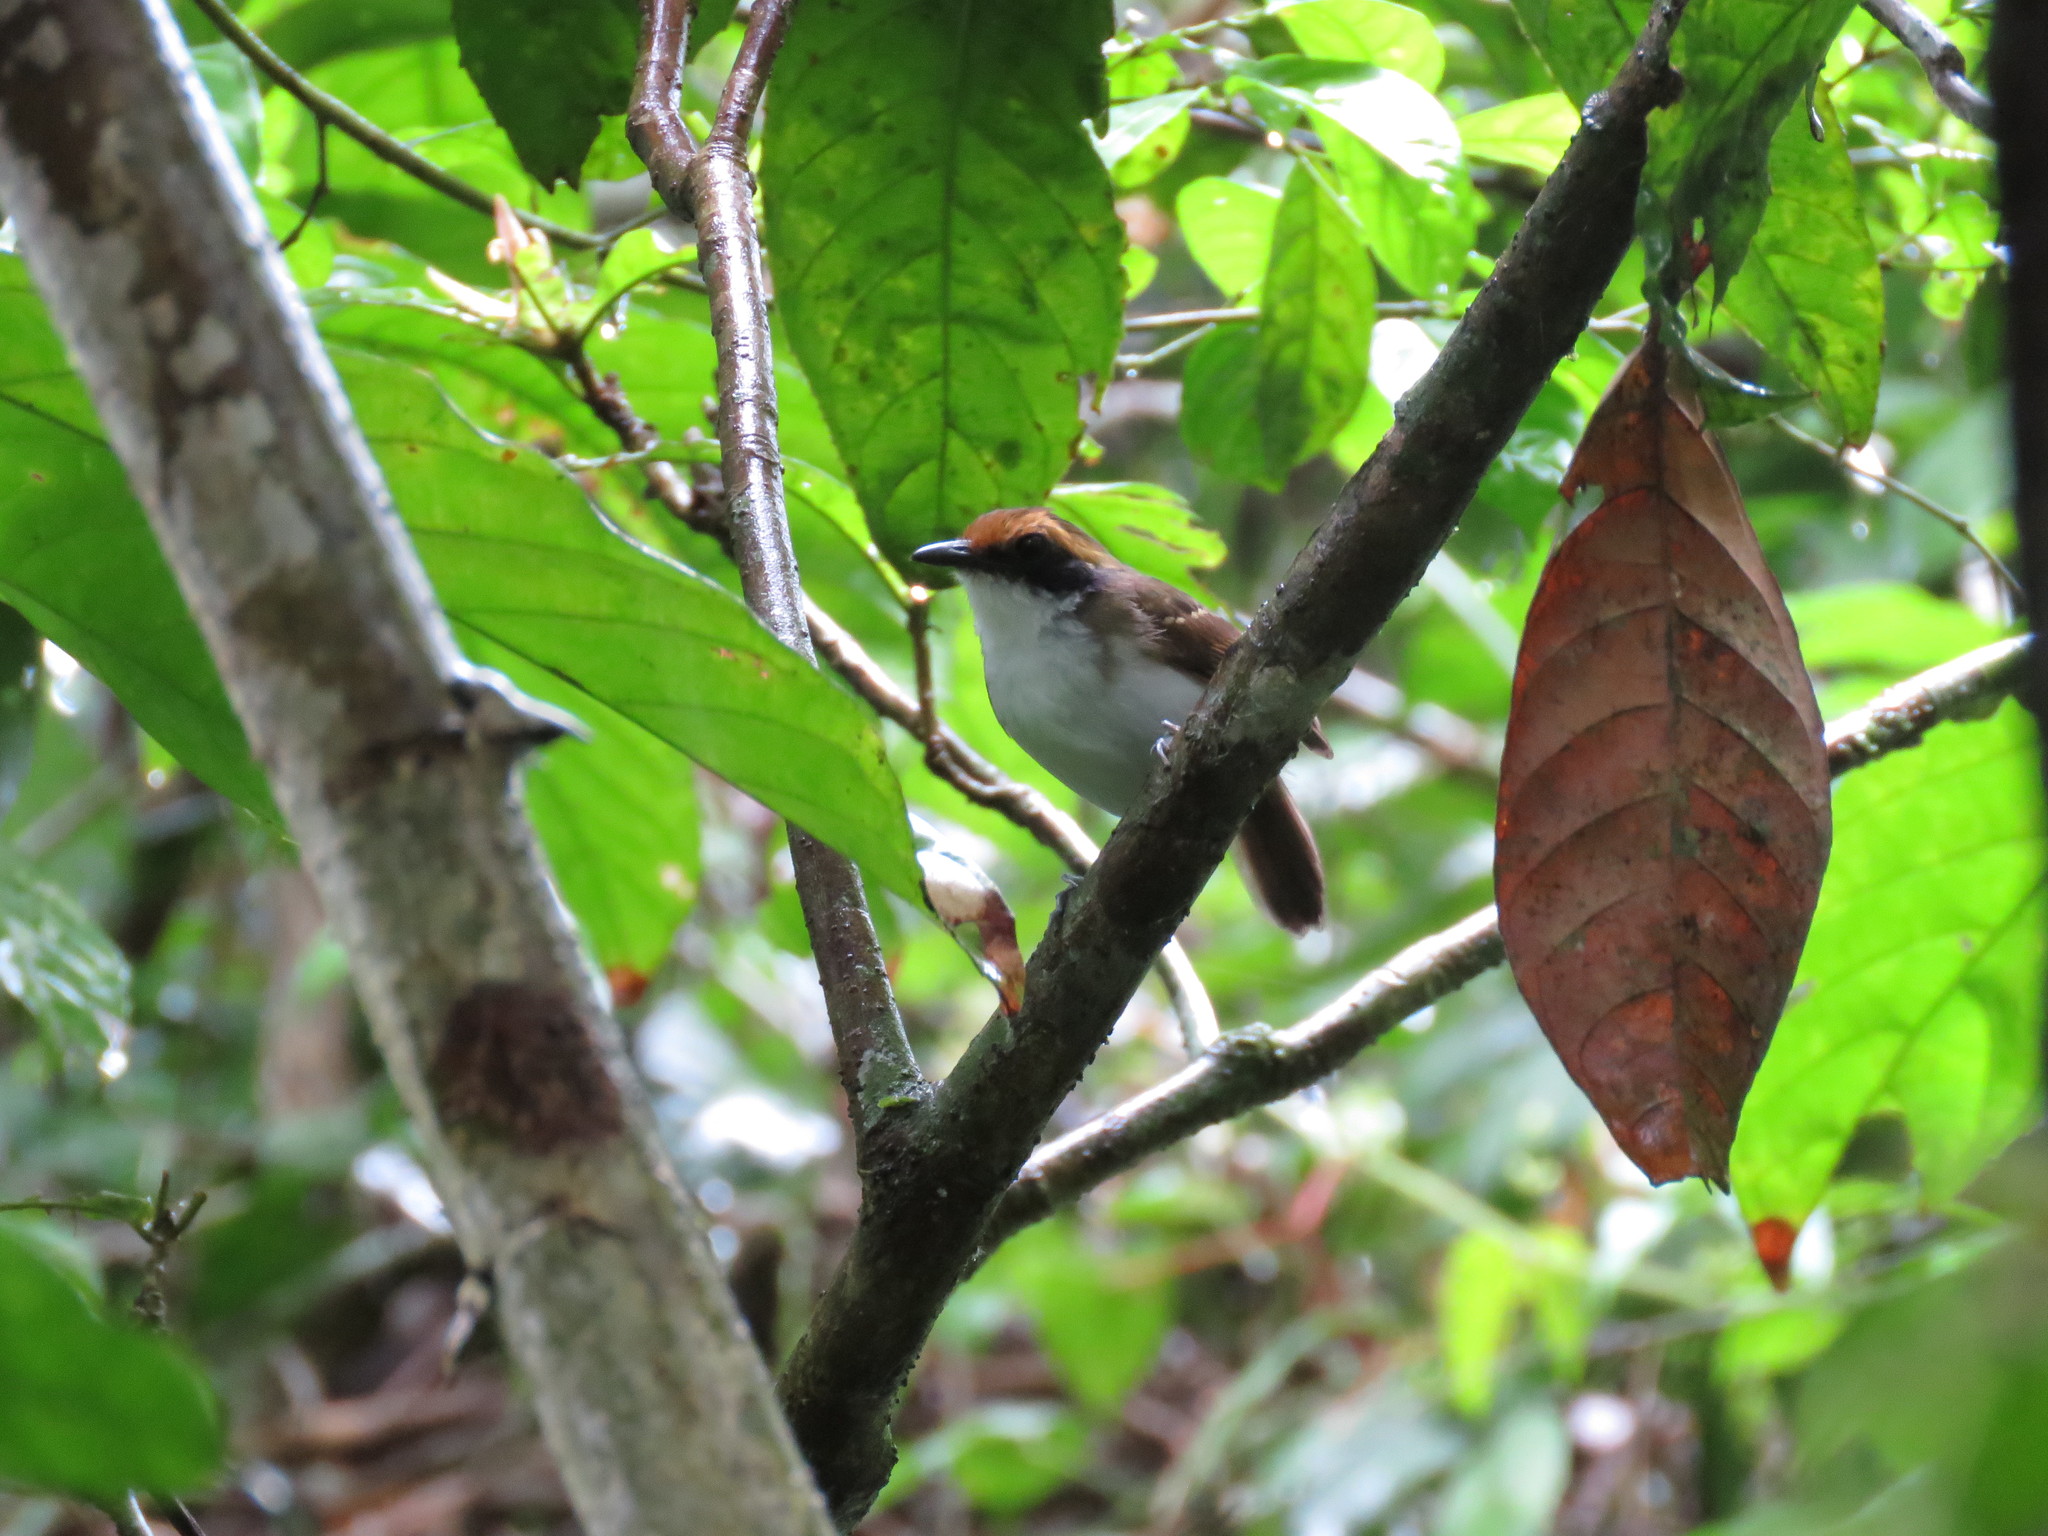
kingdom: Animalia
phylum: Chordata
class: Aves
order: Passeriformes
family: Thamnophilidae
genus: Myrmoborus
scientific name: Myrmoborus leucophrys
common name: White-browed antbird
